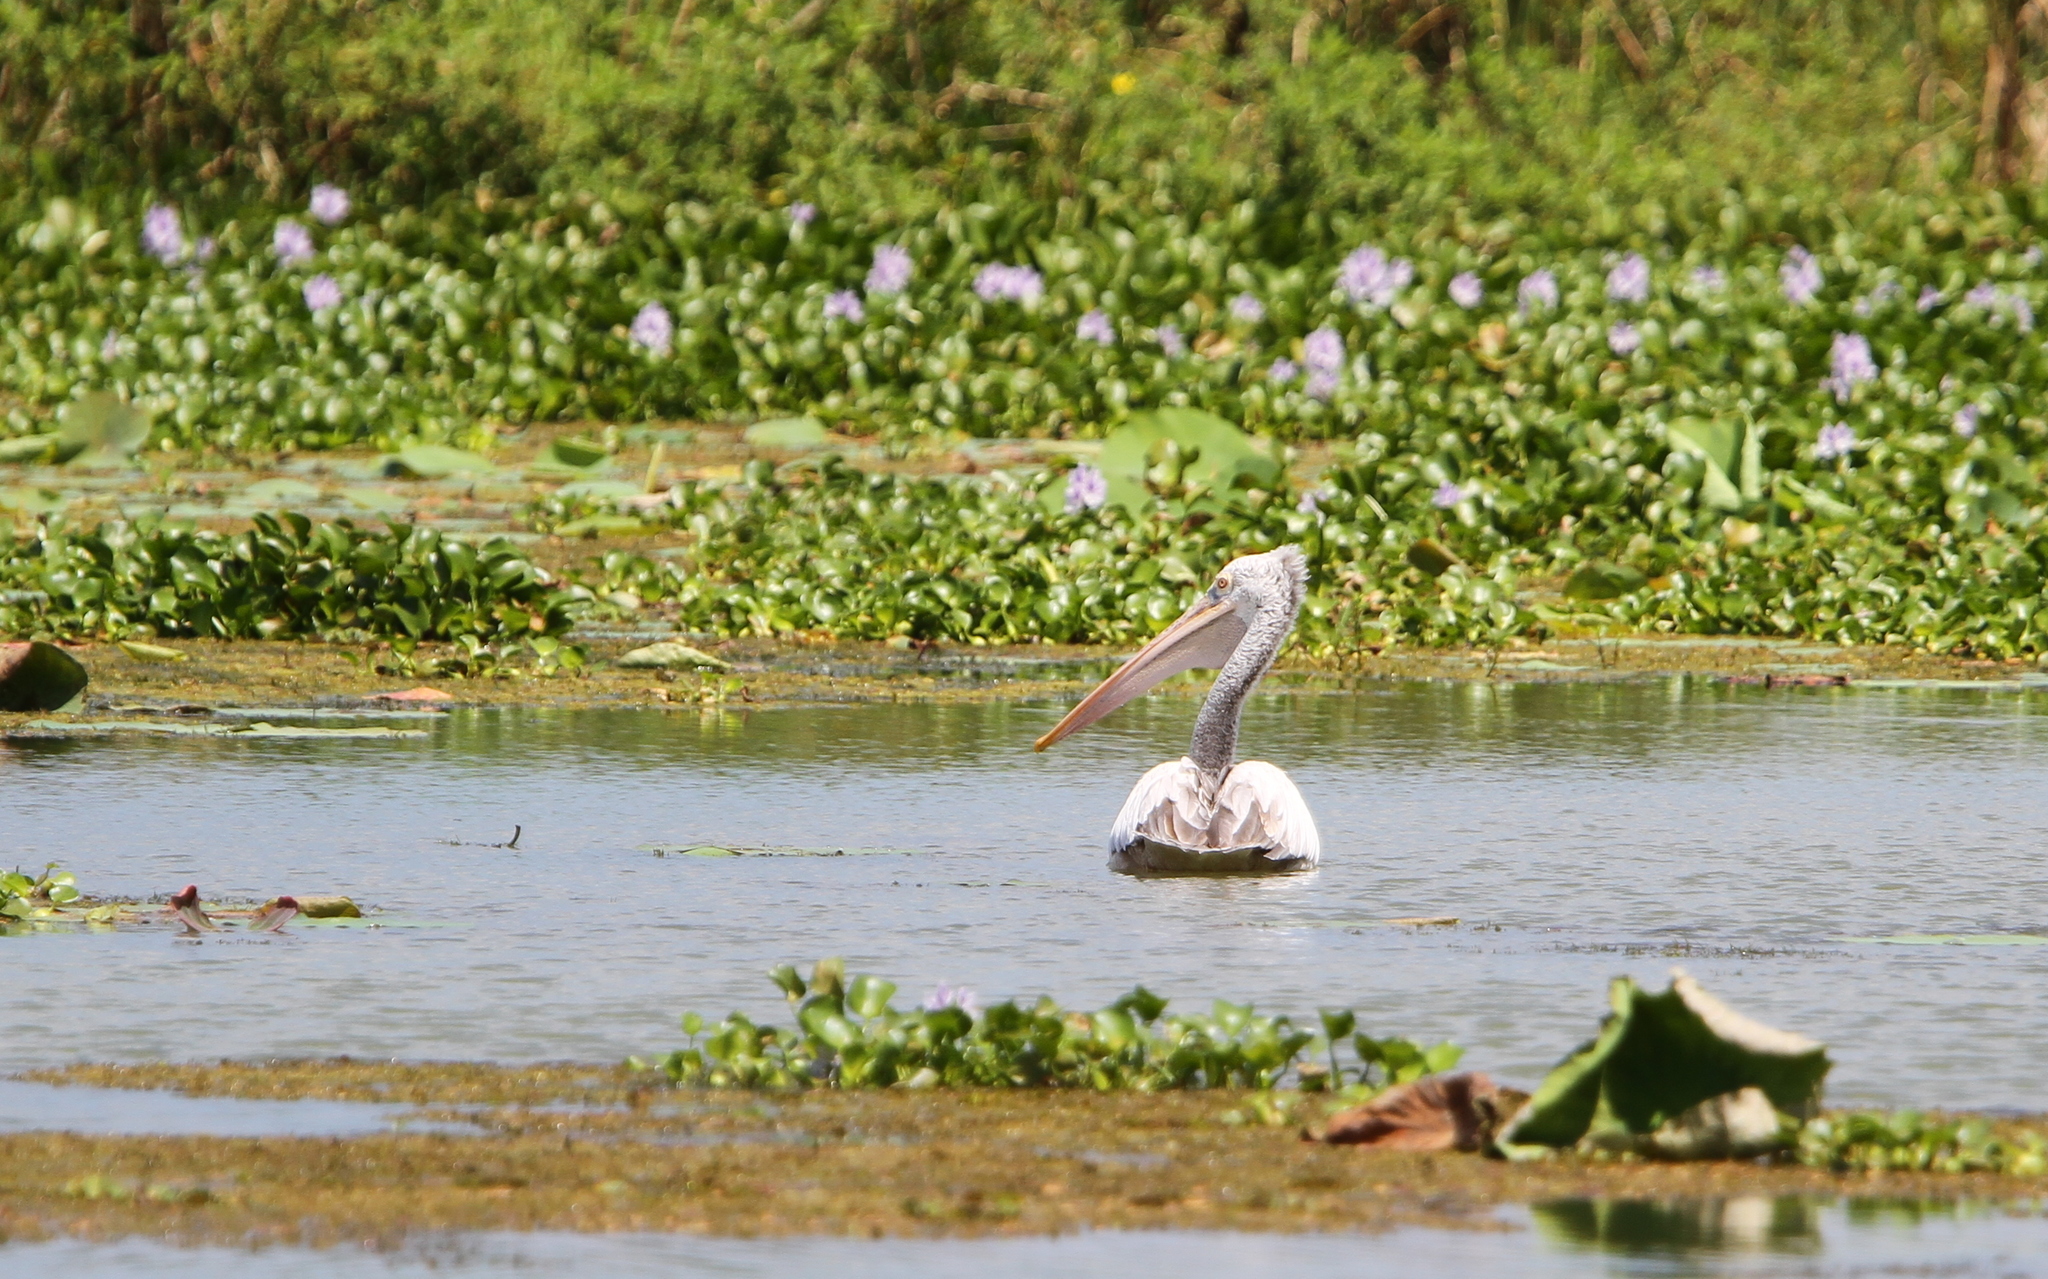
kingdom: Animalia
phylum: Chordata
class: Aves
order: Pelecaniformes
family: Pelecanidae
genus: Pelecanus
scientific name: Pelecanus philippensis
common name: Spot-billed pelican
